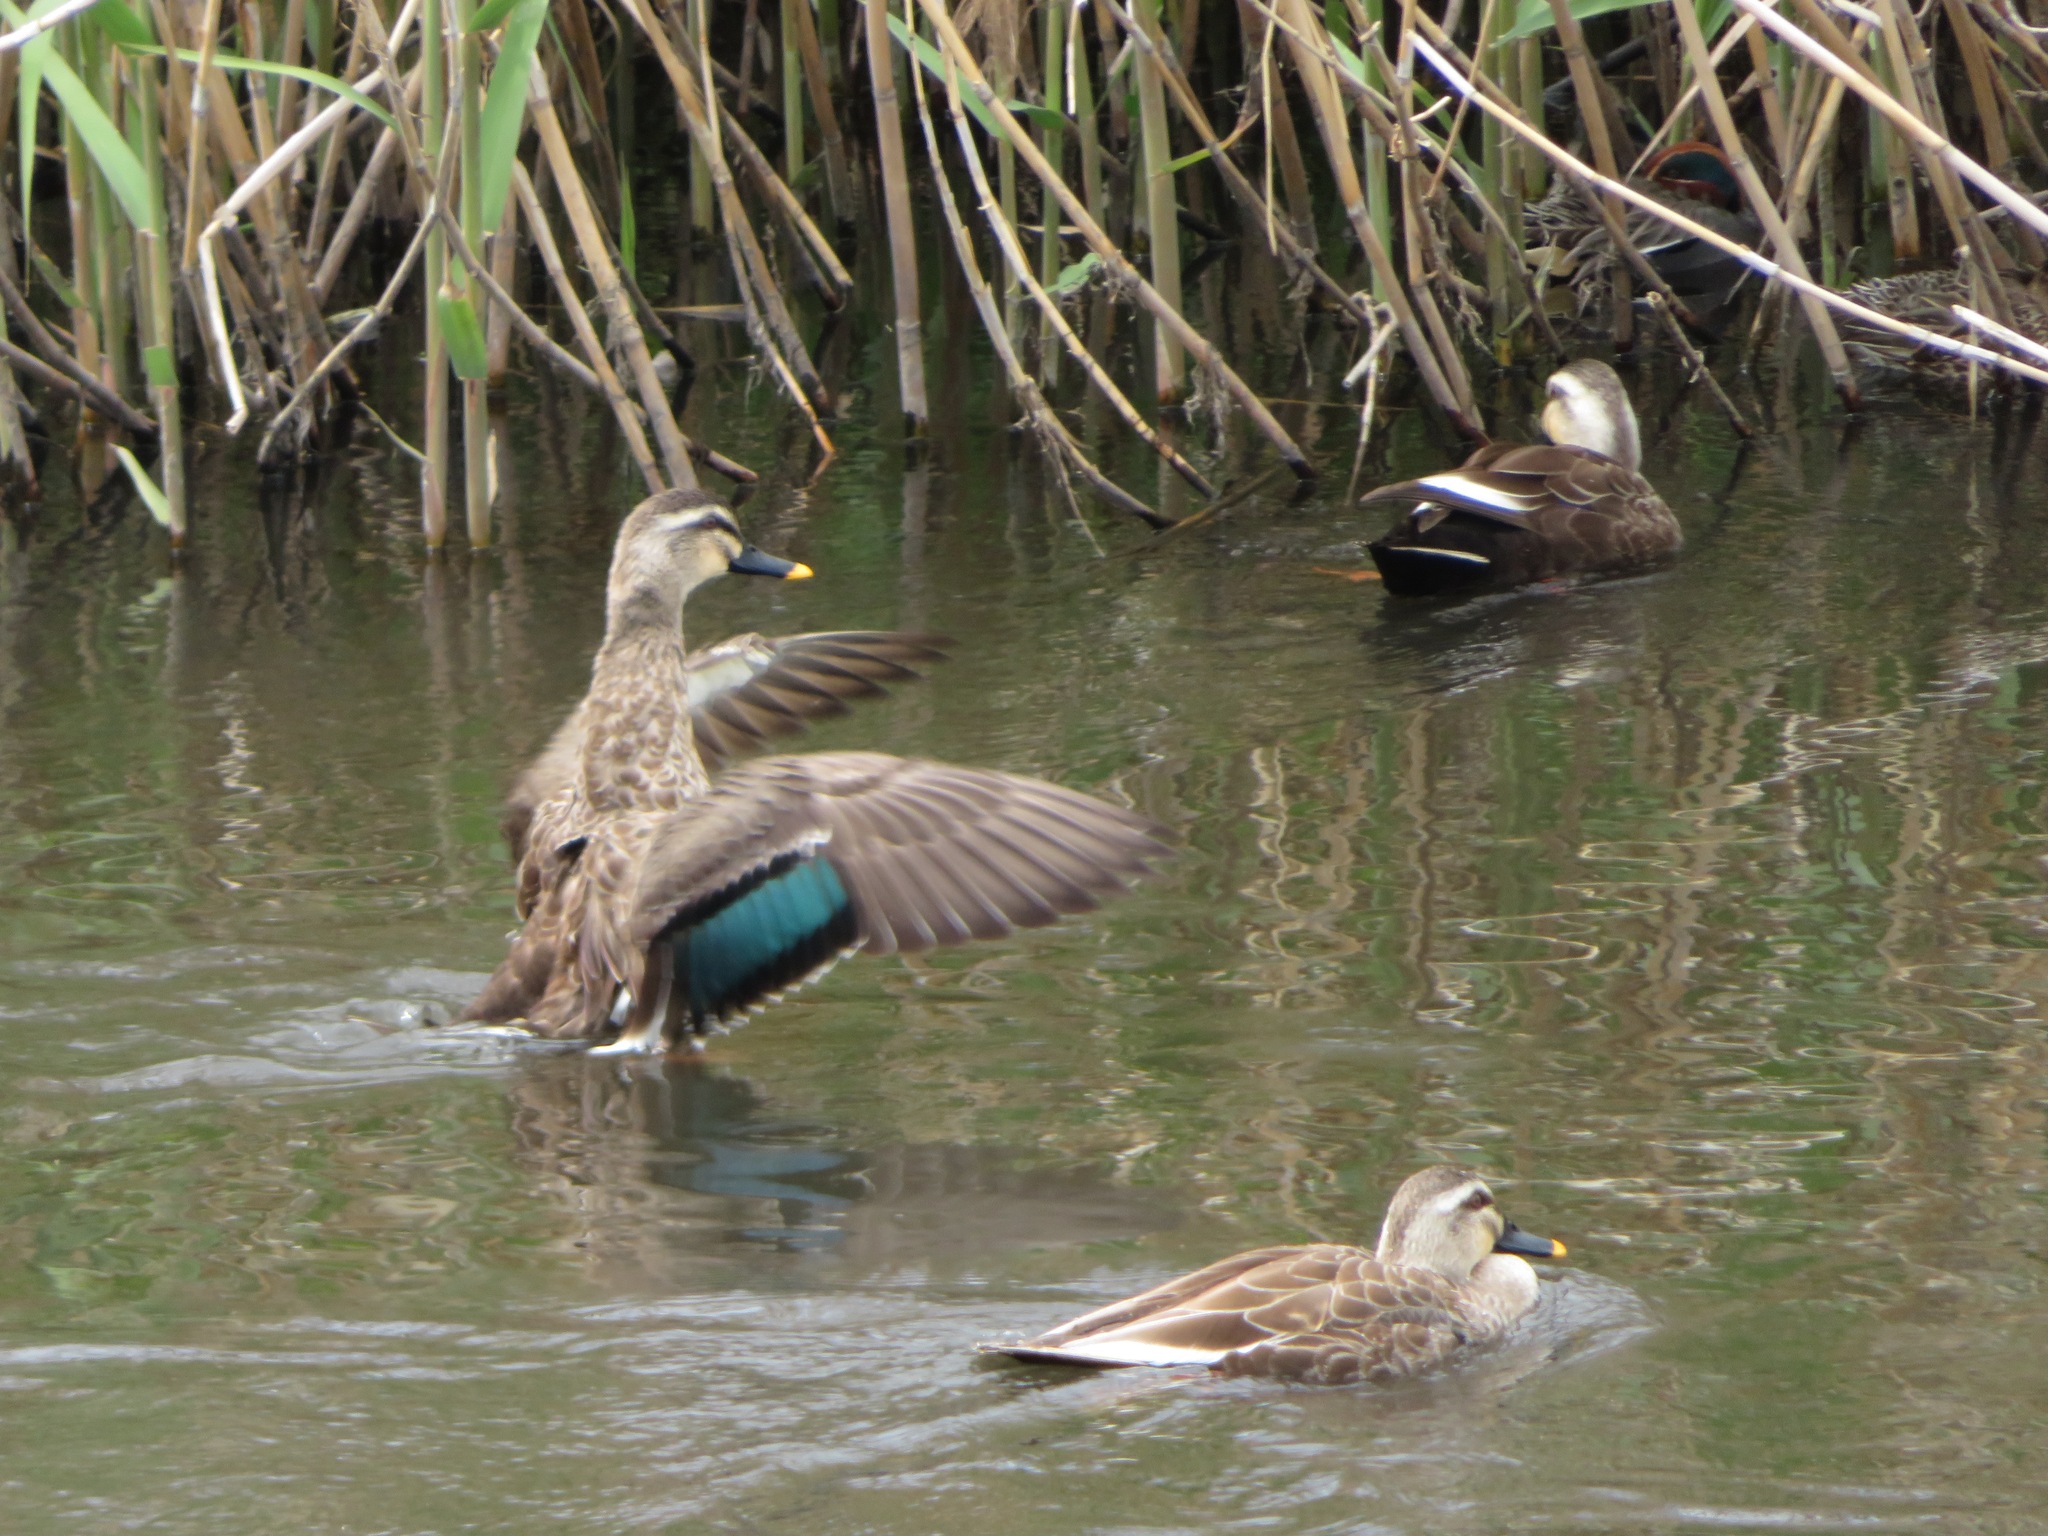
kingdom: Animalia
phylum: Chordata
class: Aves
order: Anseriformes
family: Anatidae
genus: Anas
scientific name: Anas zonorhyncha
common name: Eastern spot-billed duck
